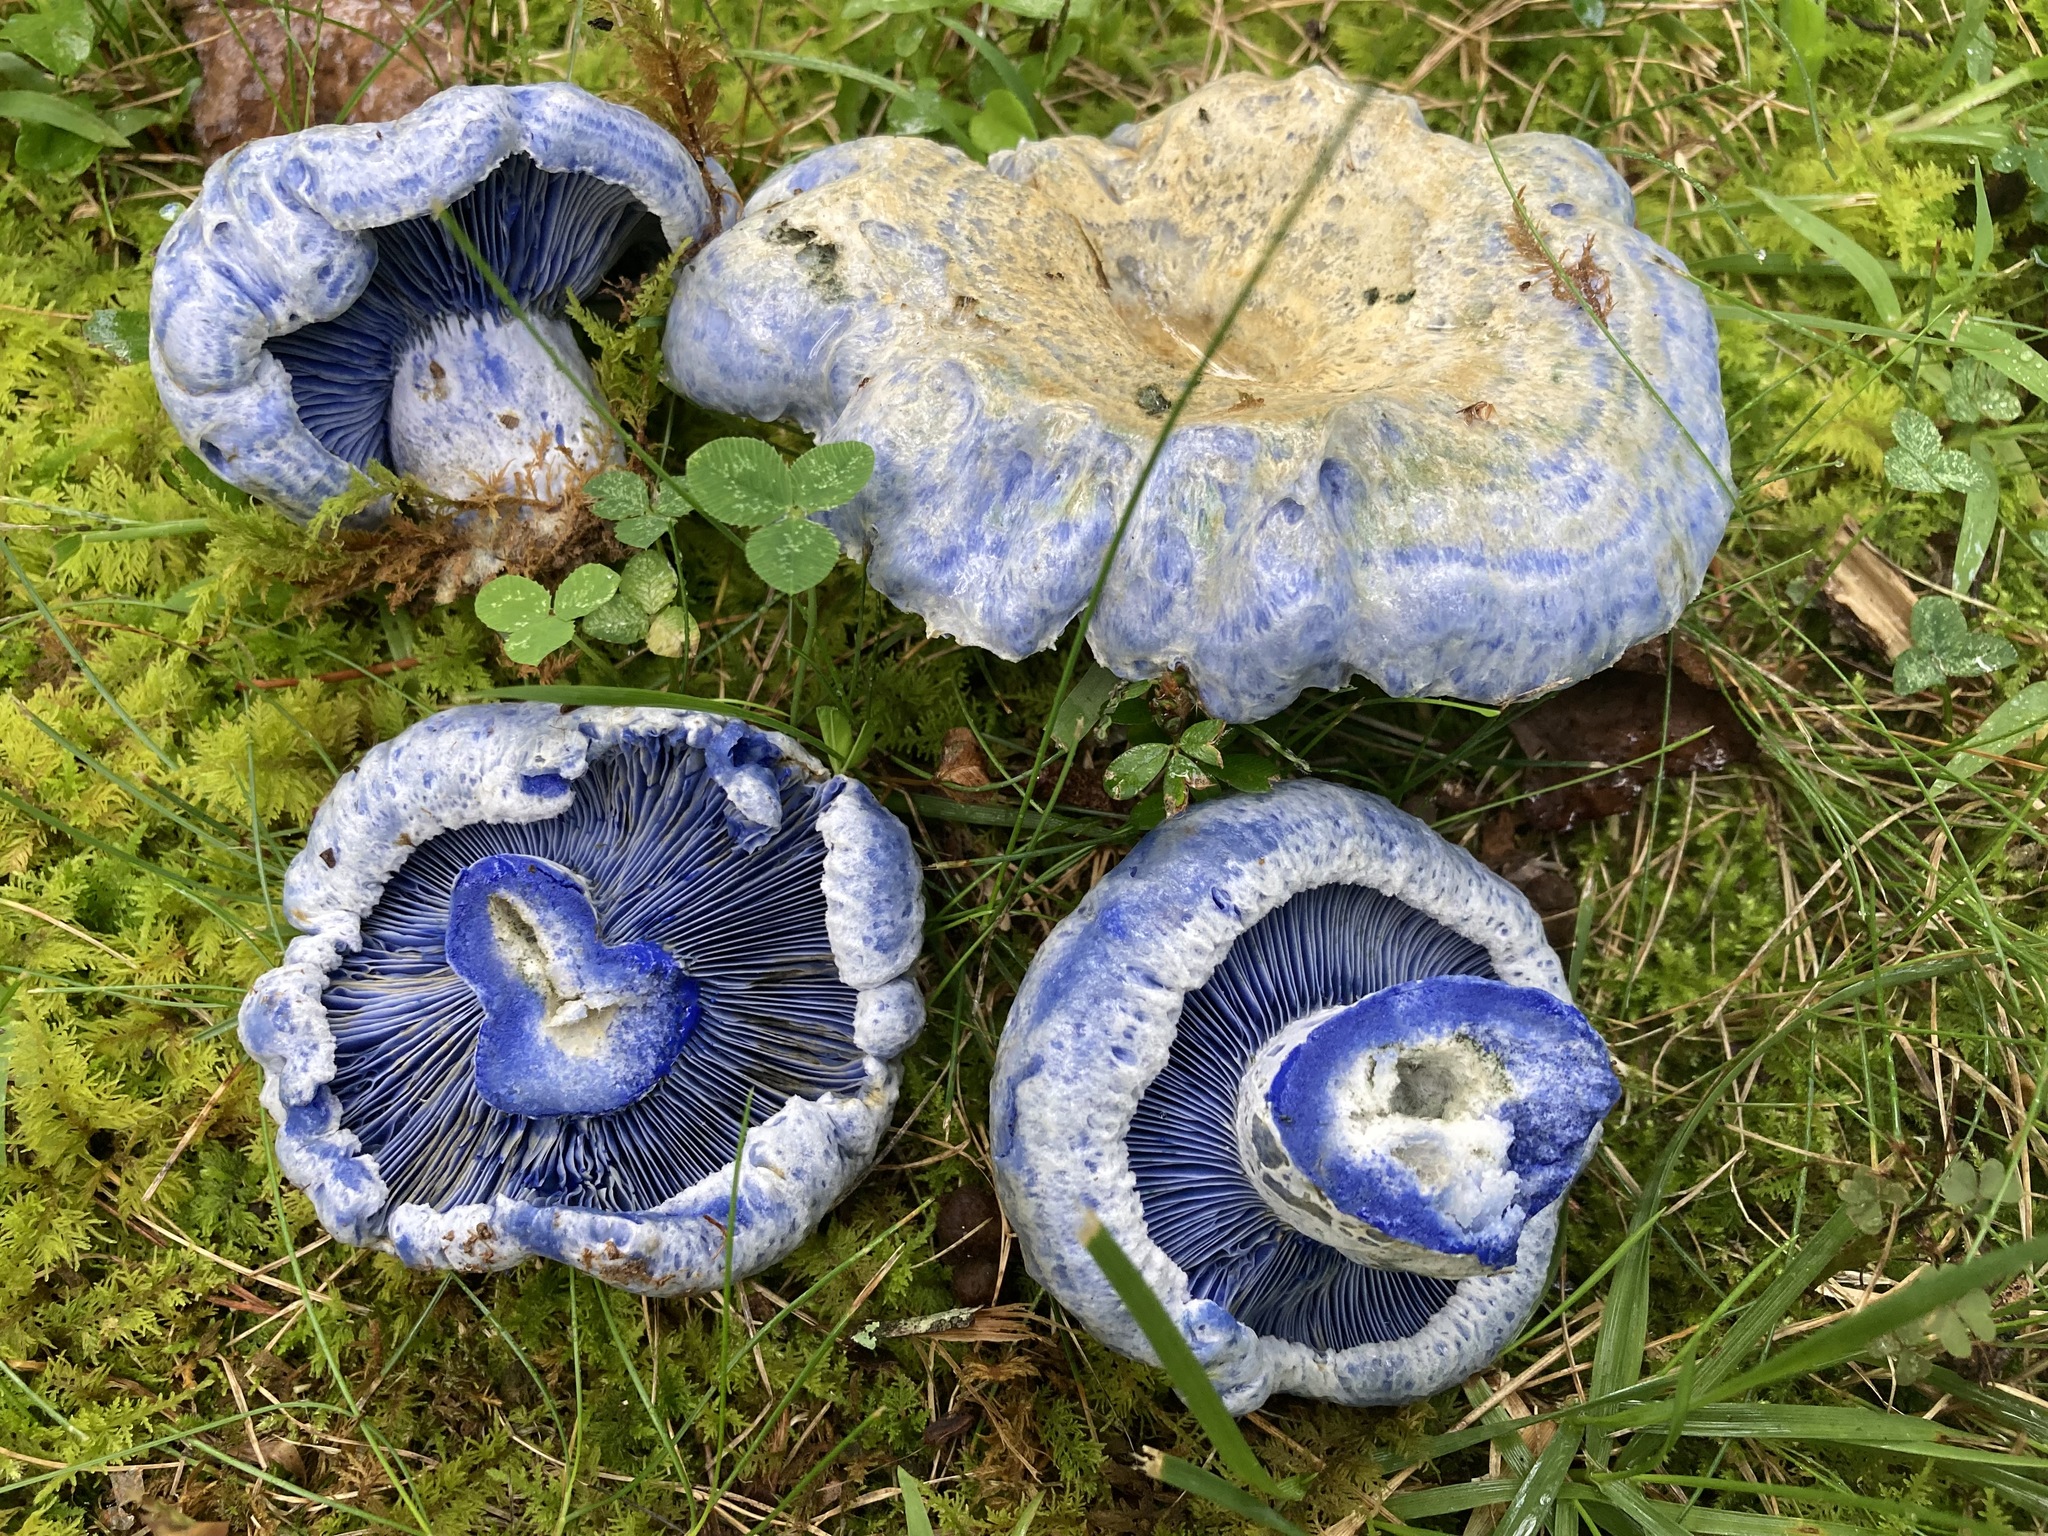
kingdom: Fungi
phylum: Basidiomycota
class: Agaricomycetes
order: Russulales
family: Russulaceae
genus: Lactarius
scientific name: Lactarius indigo
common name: Indigo milk cap
